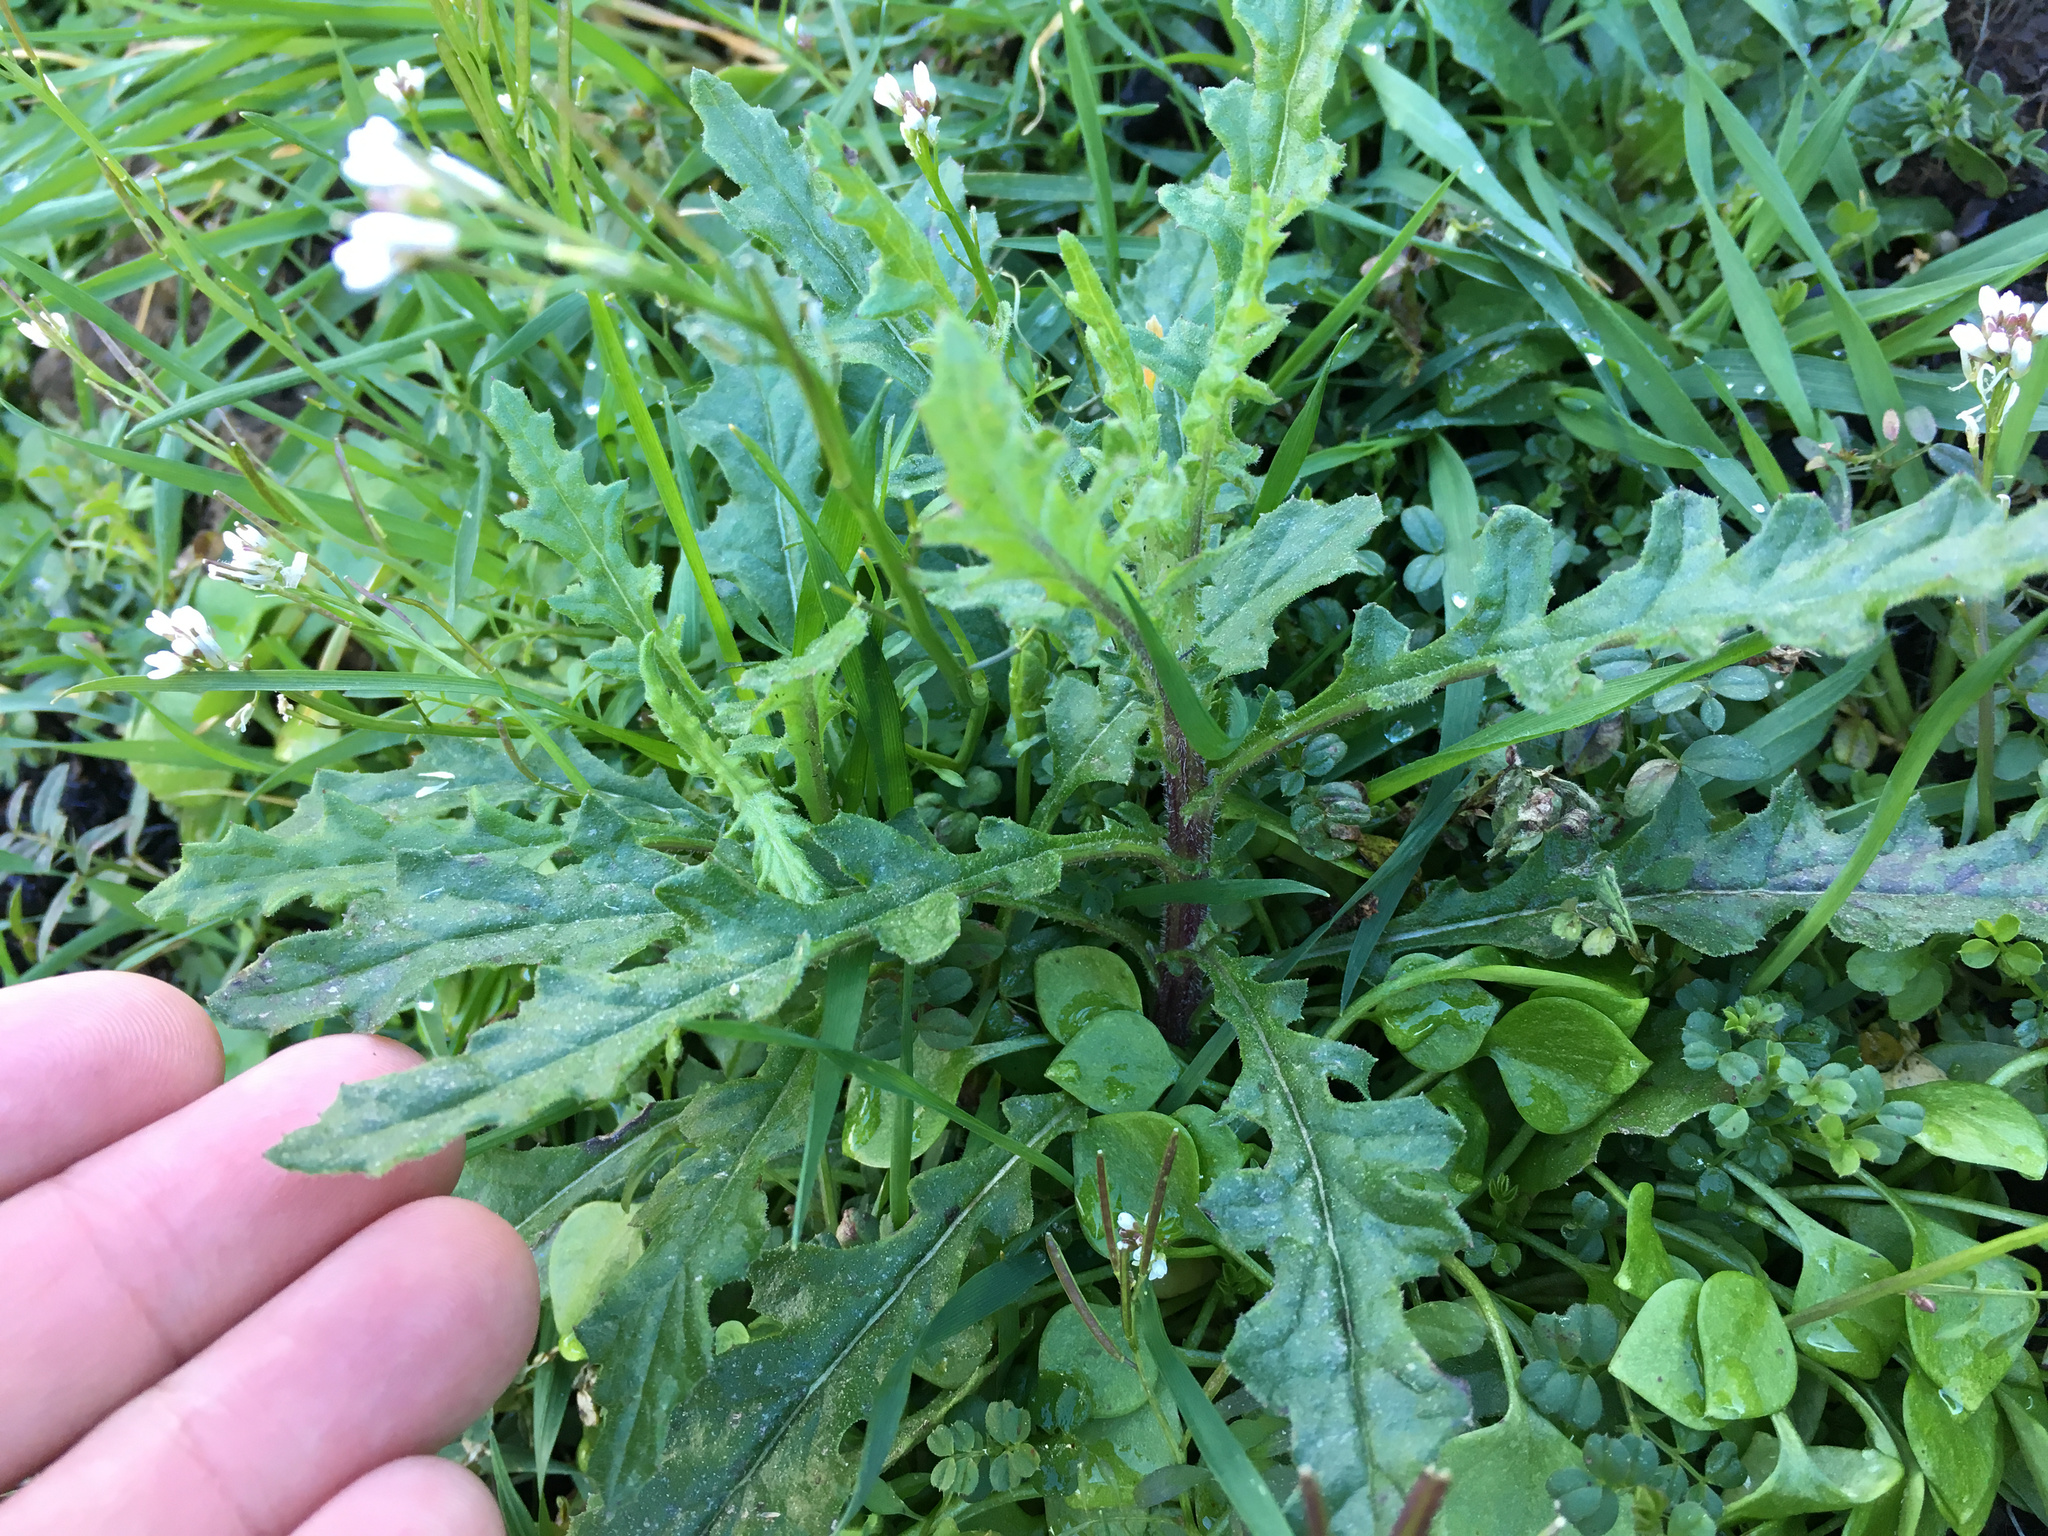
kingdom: Plantae
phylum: Tracheophyta
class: Magnoliopsida
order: Asterales
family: Asteraceae
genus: Senecio
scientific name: Senecio hispidulus
